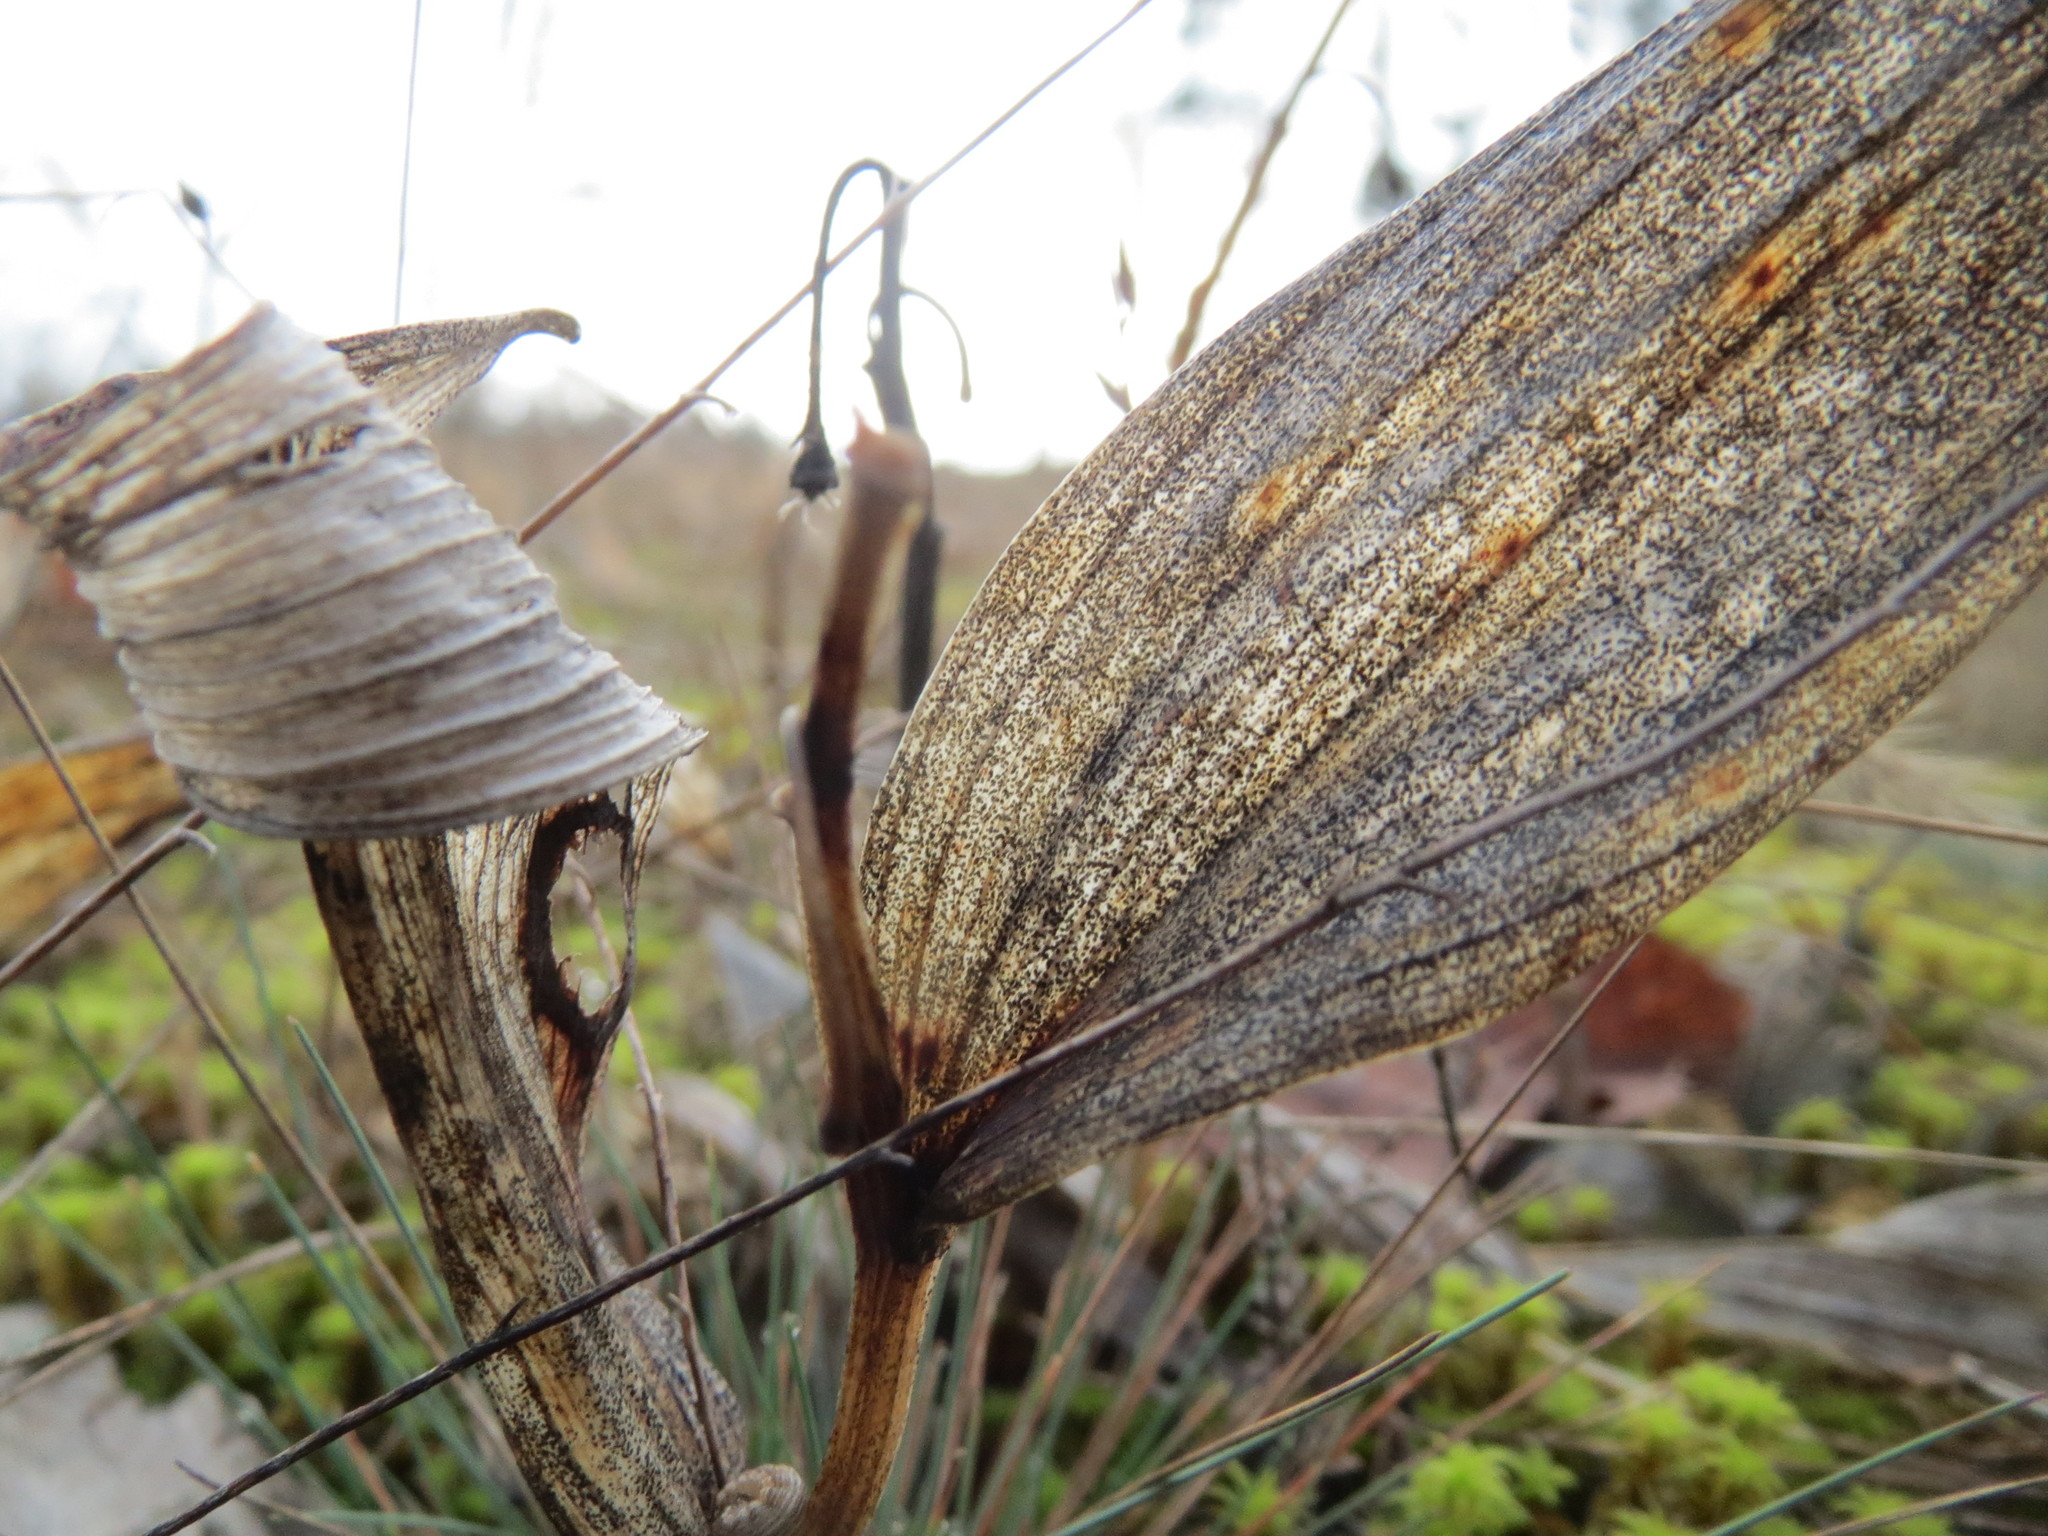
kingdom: Plantae
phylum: Tracheophyta
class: Liliopsida
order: Asparagales
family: Asparagaceae
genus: Polygonatum
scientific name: Polygonatum odoratum
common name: Angular solomon's-seal
